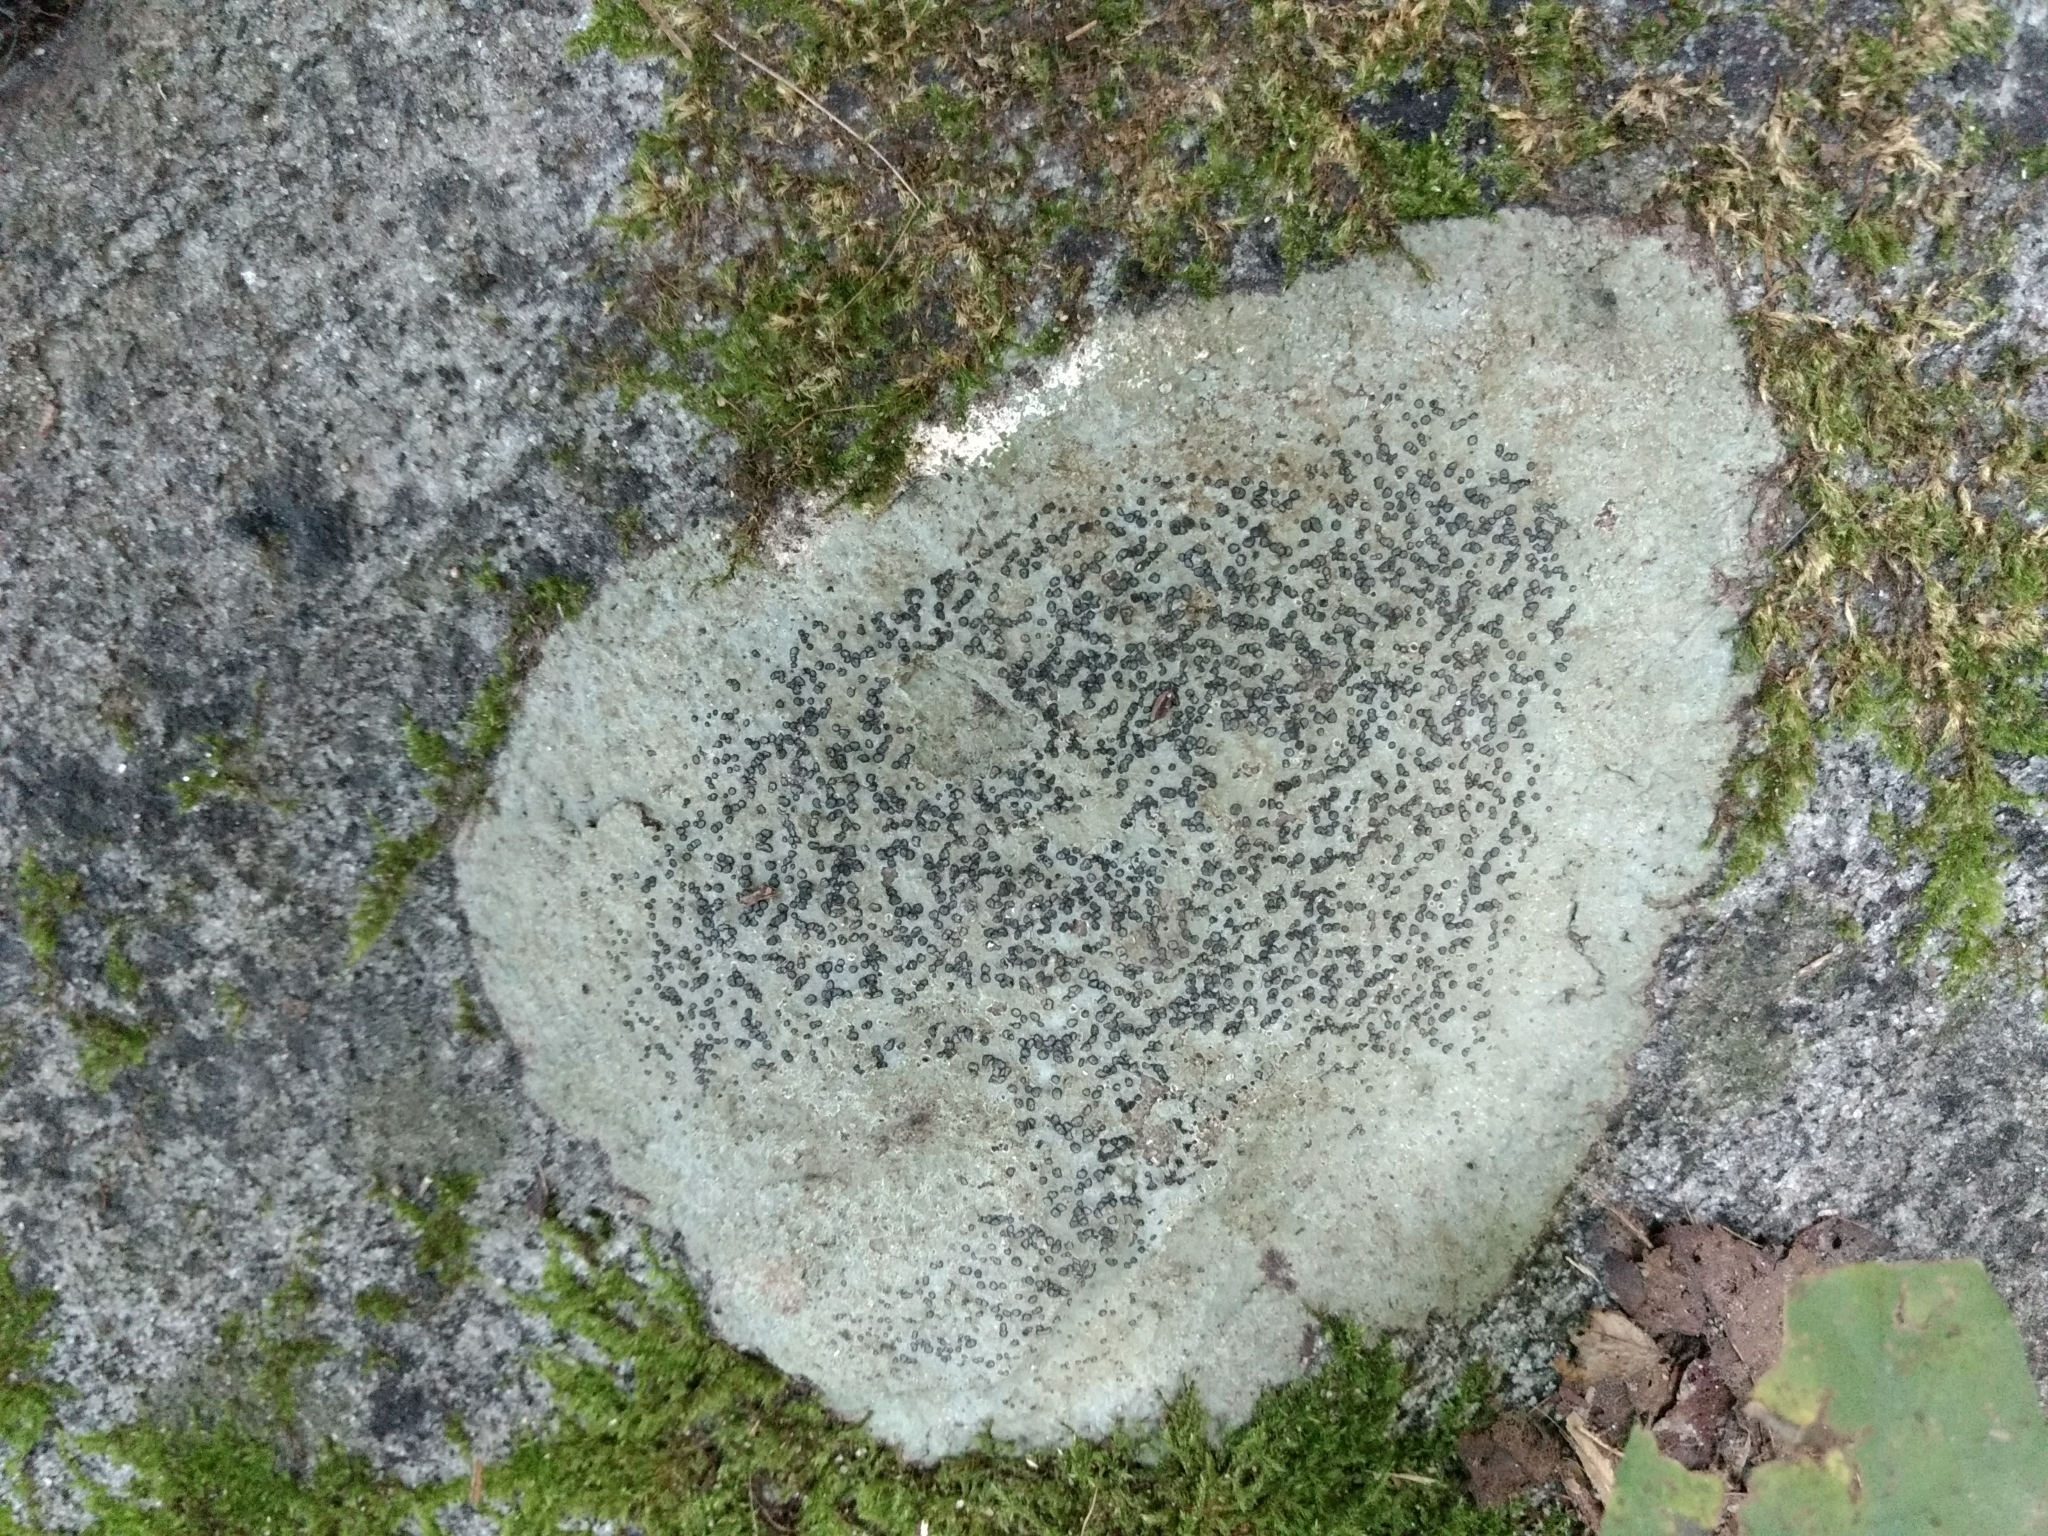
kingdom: Fungi
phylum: Ascomycota
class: Lecanoromycetes
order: Lecideales
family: Lecideaceae
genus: Porpidia
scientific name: Porpidia albocaerulescens
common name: Smokey-eyed boulder lichen
